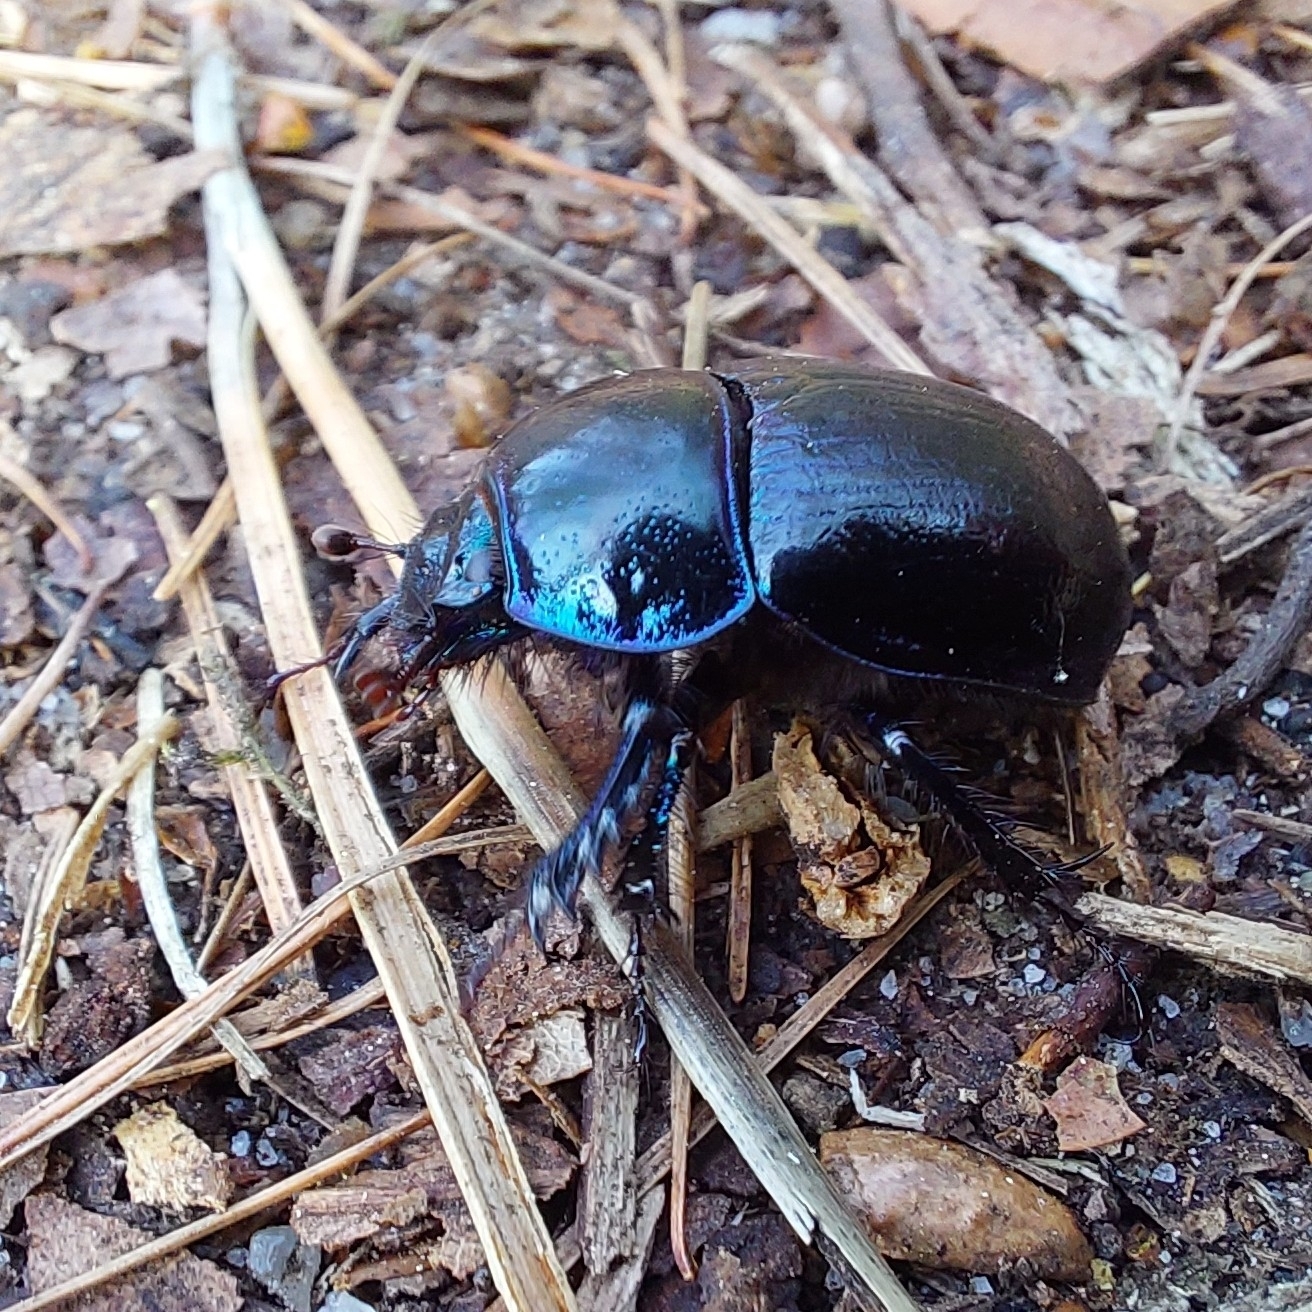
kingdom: Animalia
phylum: Arthropoda
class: Insecta
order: Coleoptera
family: Geotrupidae
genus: Anoplotrupes
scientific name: Anoplotrupes stercorosus
